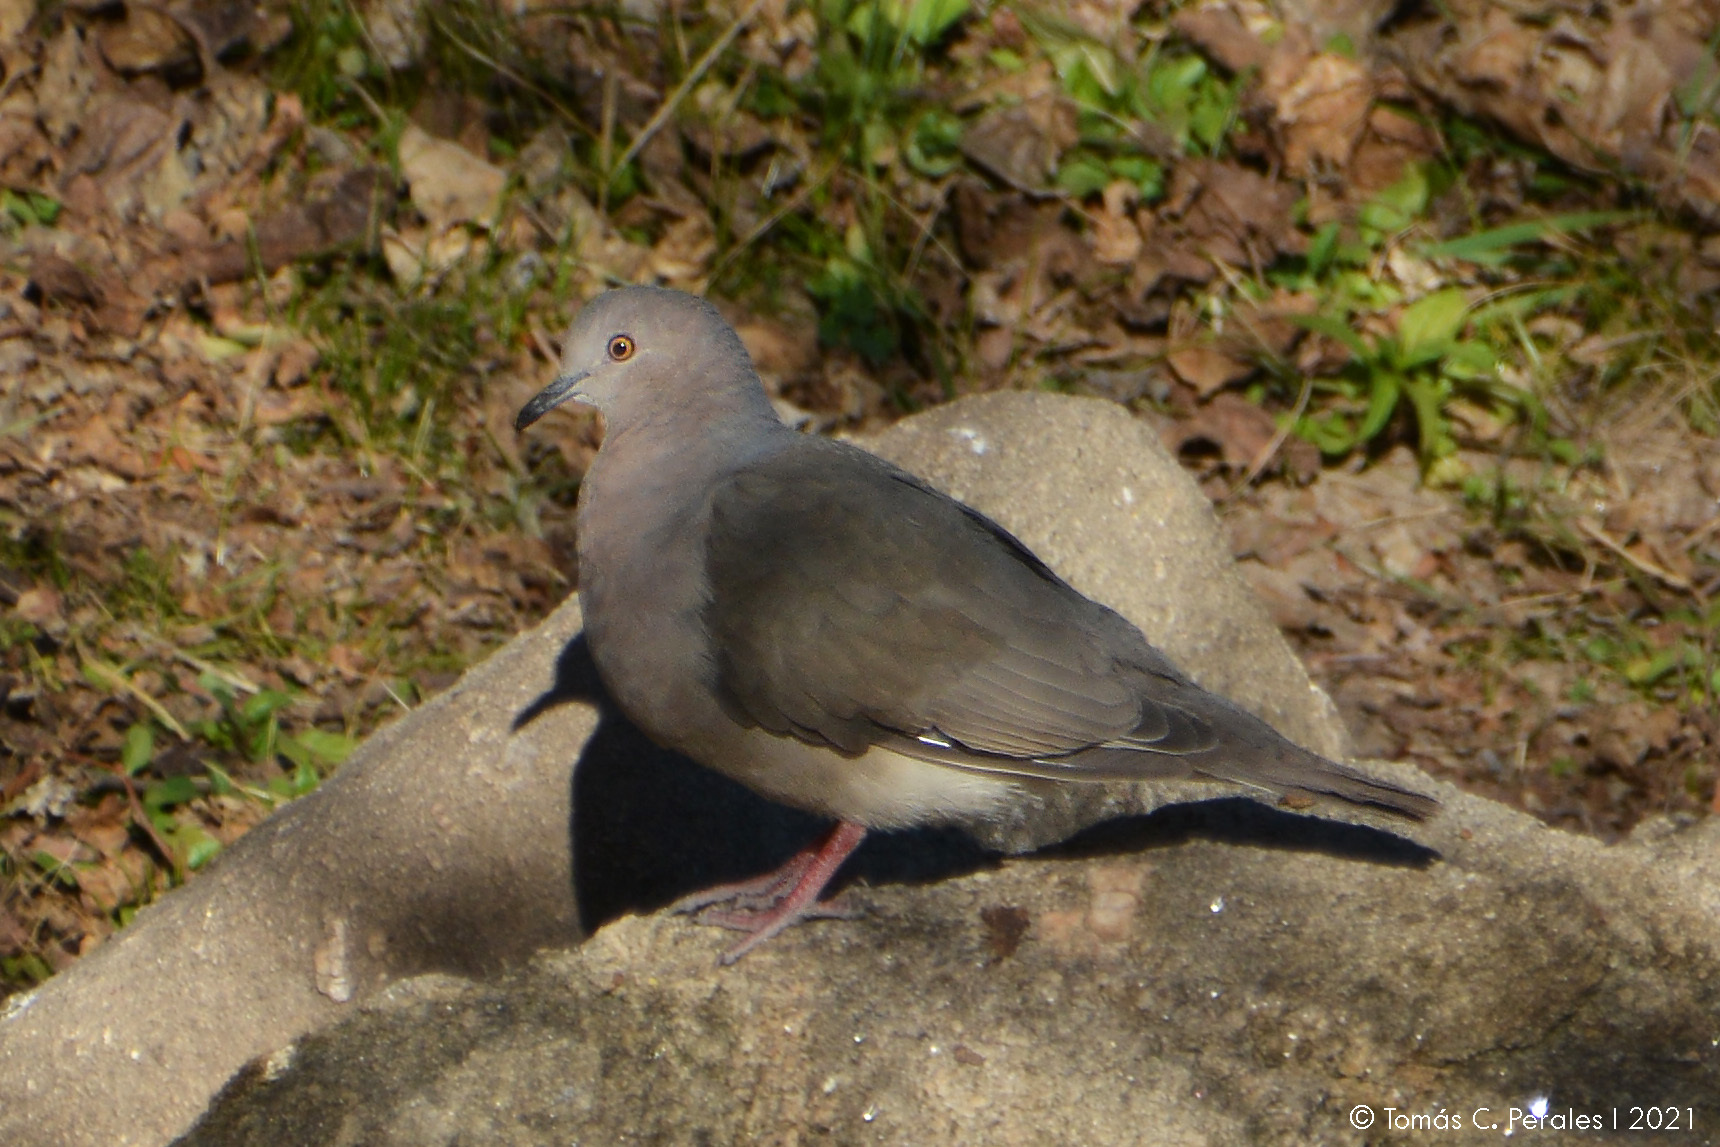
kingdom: Animalia
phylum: Chordata
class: Aves
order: Columbiformes
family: Columbidae
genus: Leptotila
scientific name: Leptotila verreauxi
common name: White-tipped dove
